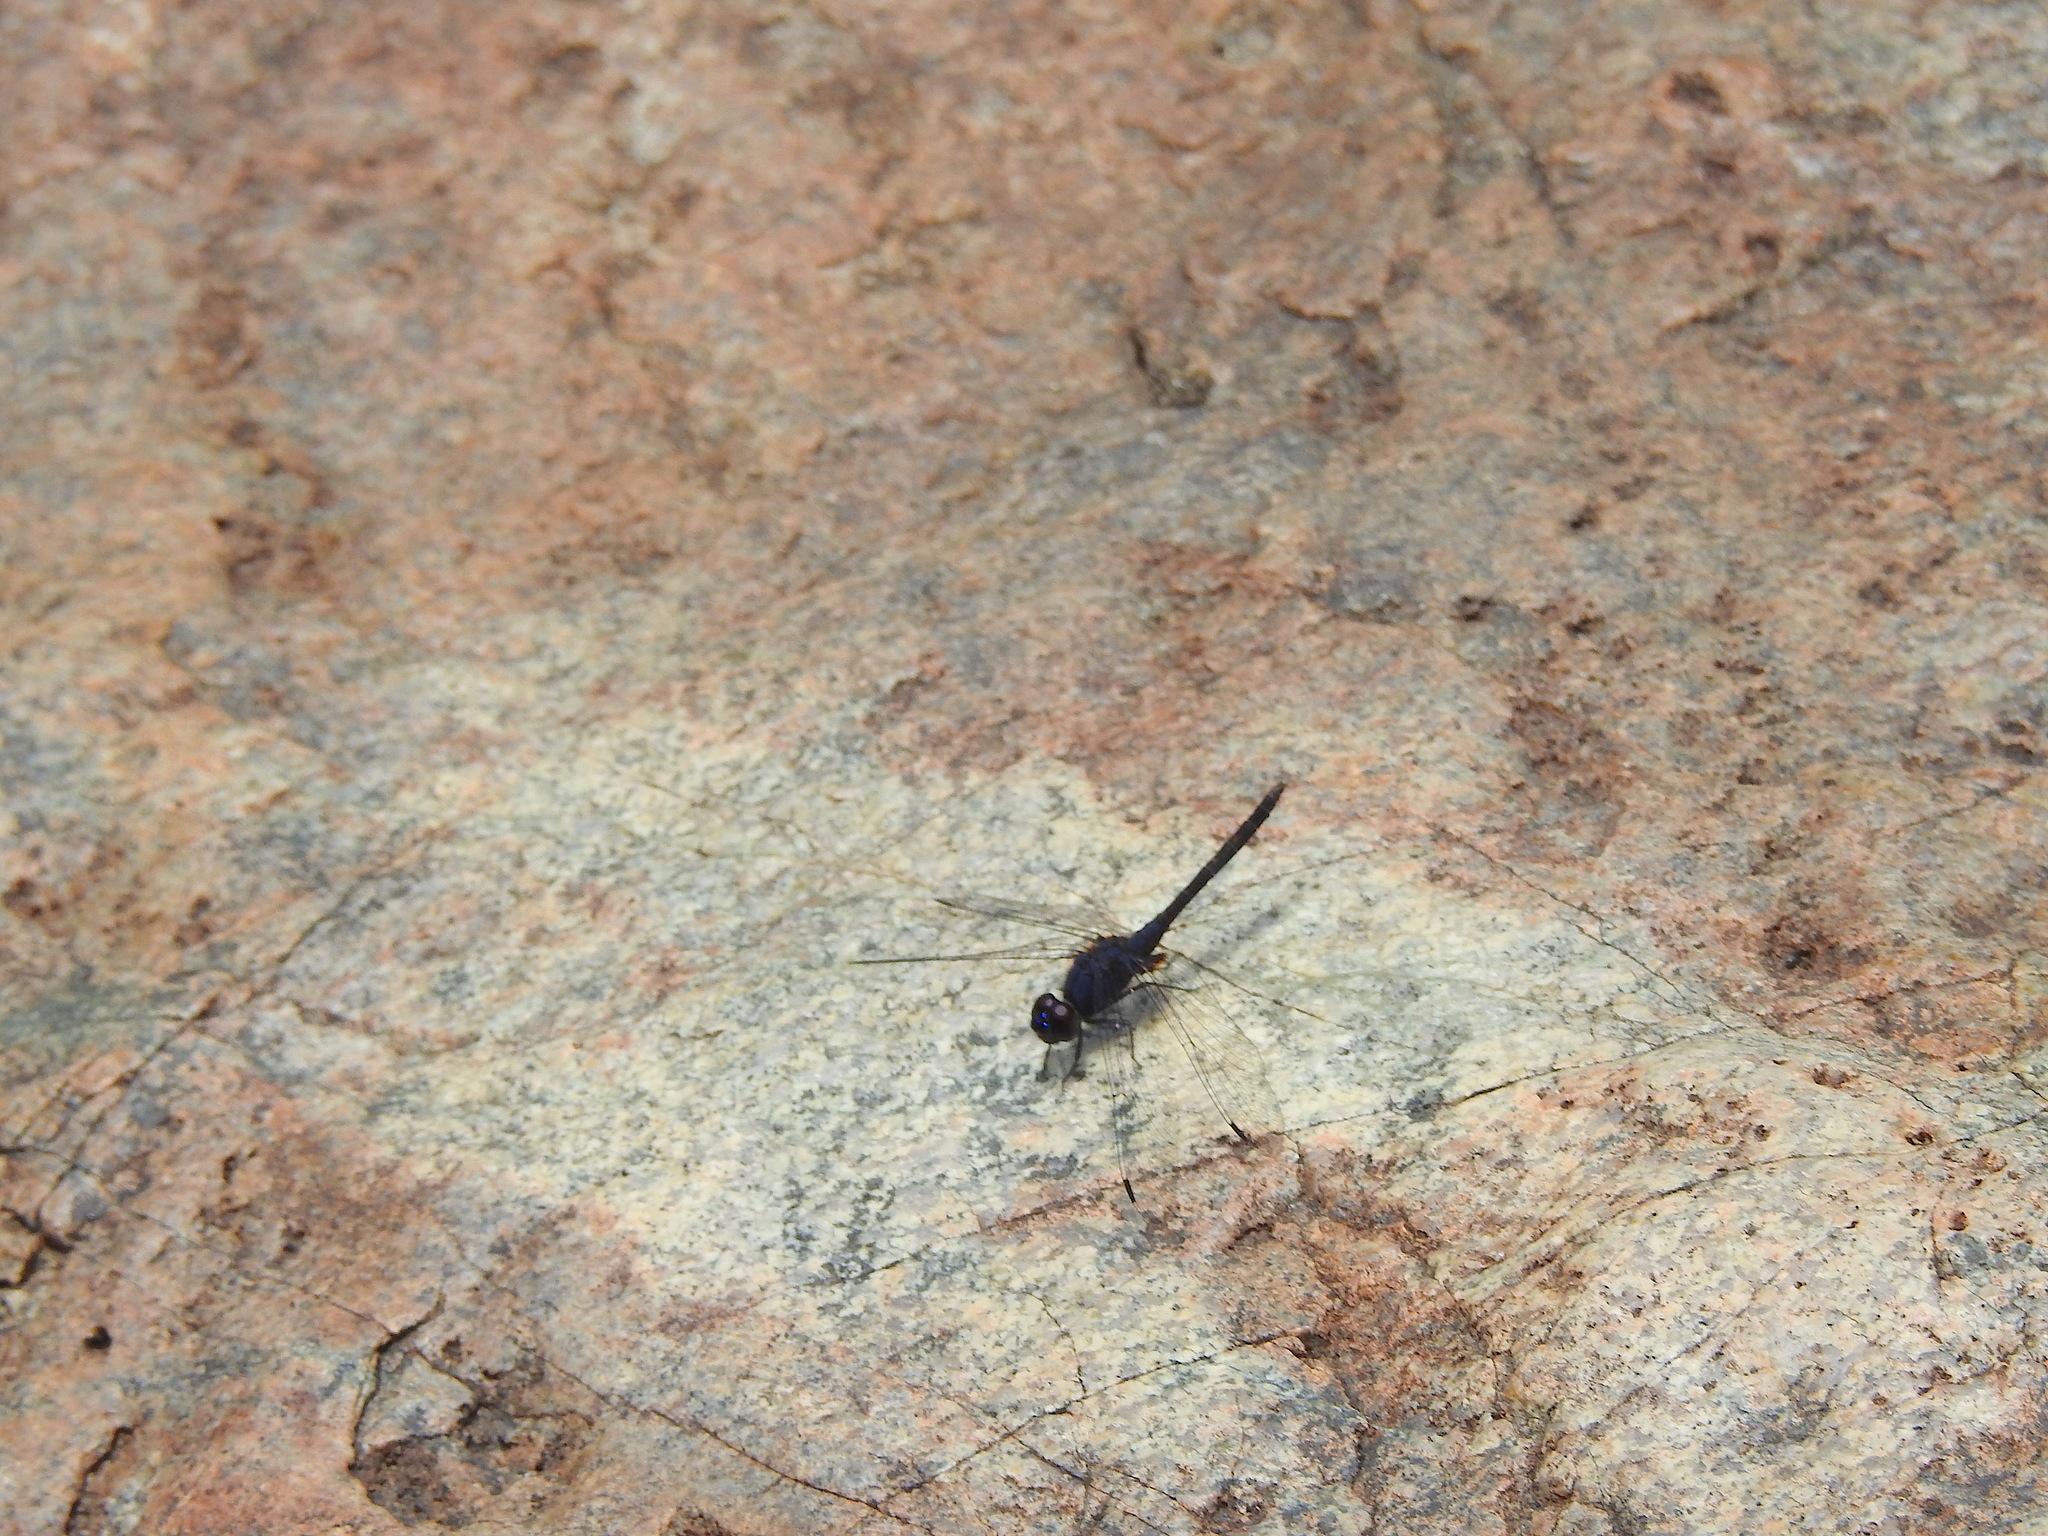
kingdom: Animalia
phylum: Arthropoda
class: Insecta
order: Odonata
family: Libellulidae
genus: Trithemis
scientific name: Trithemis festiva
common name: Indigo dropwing
